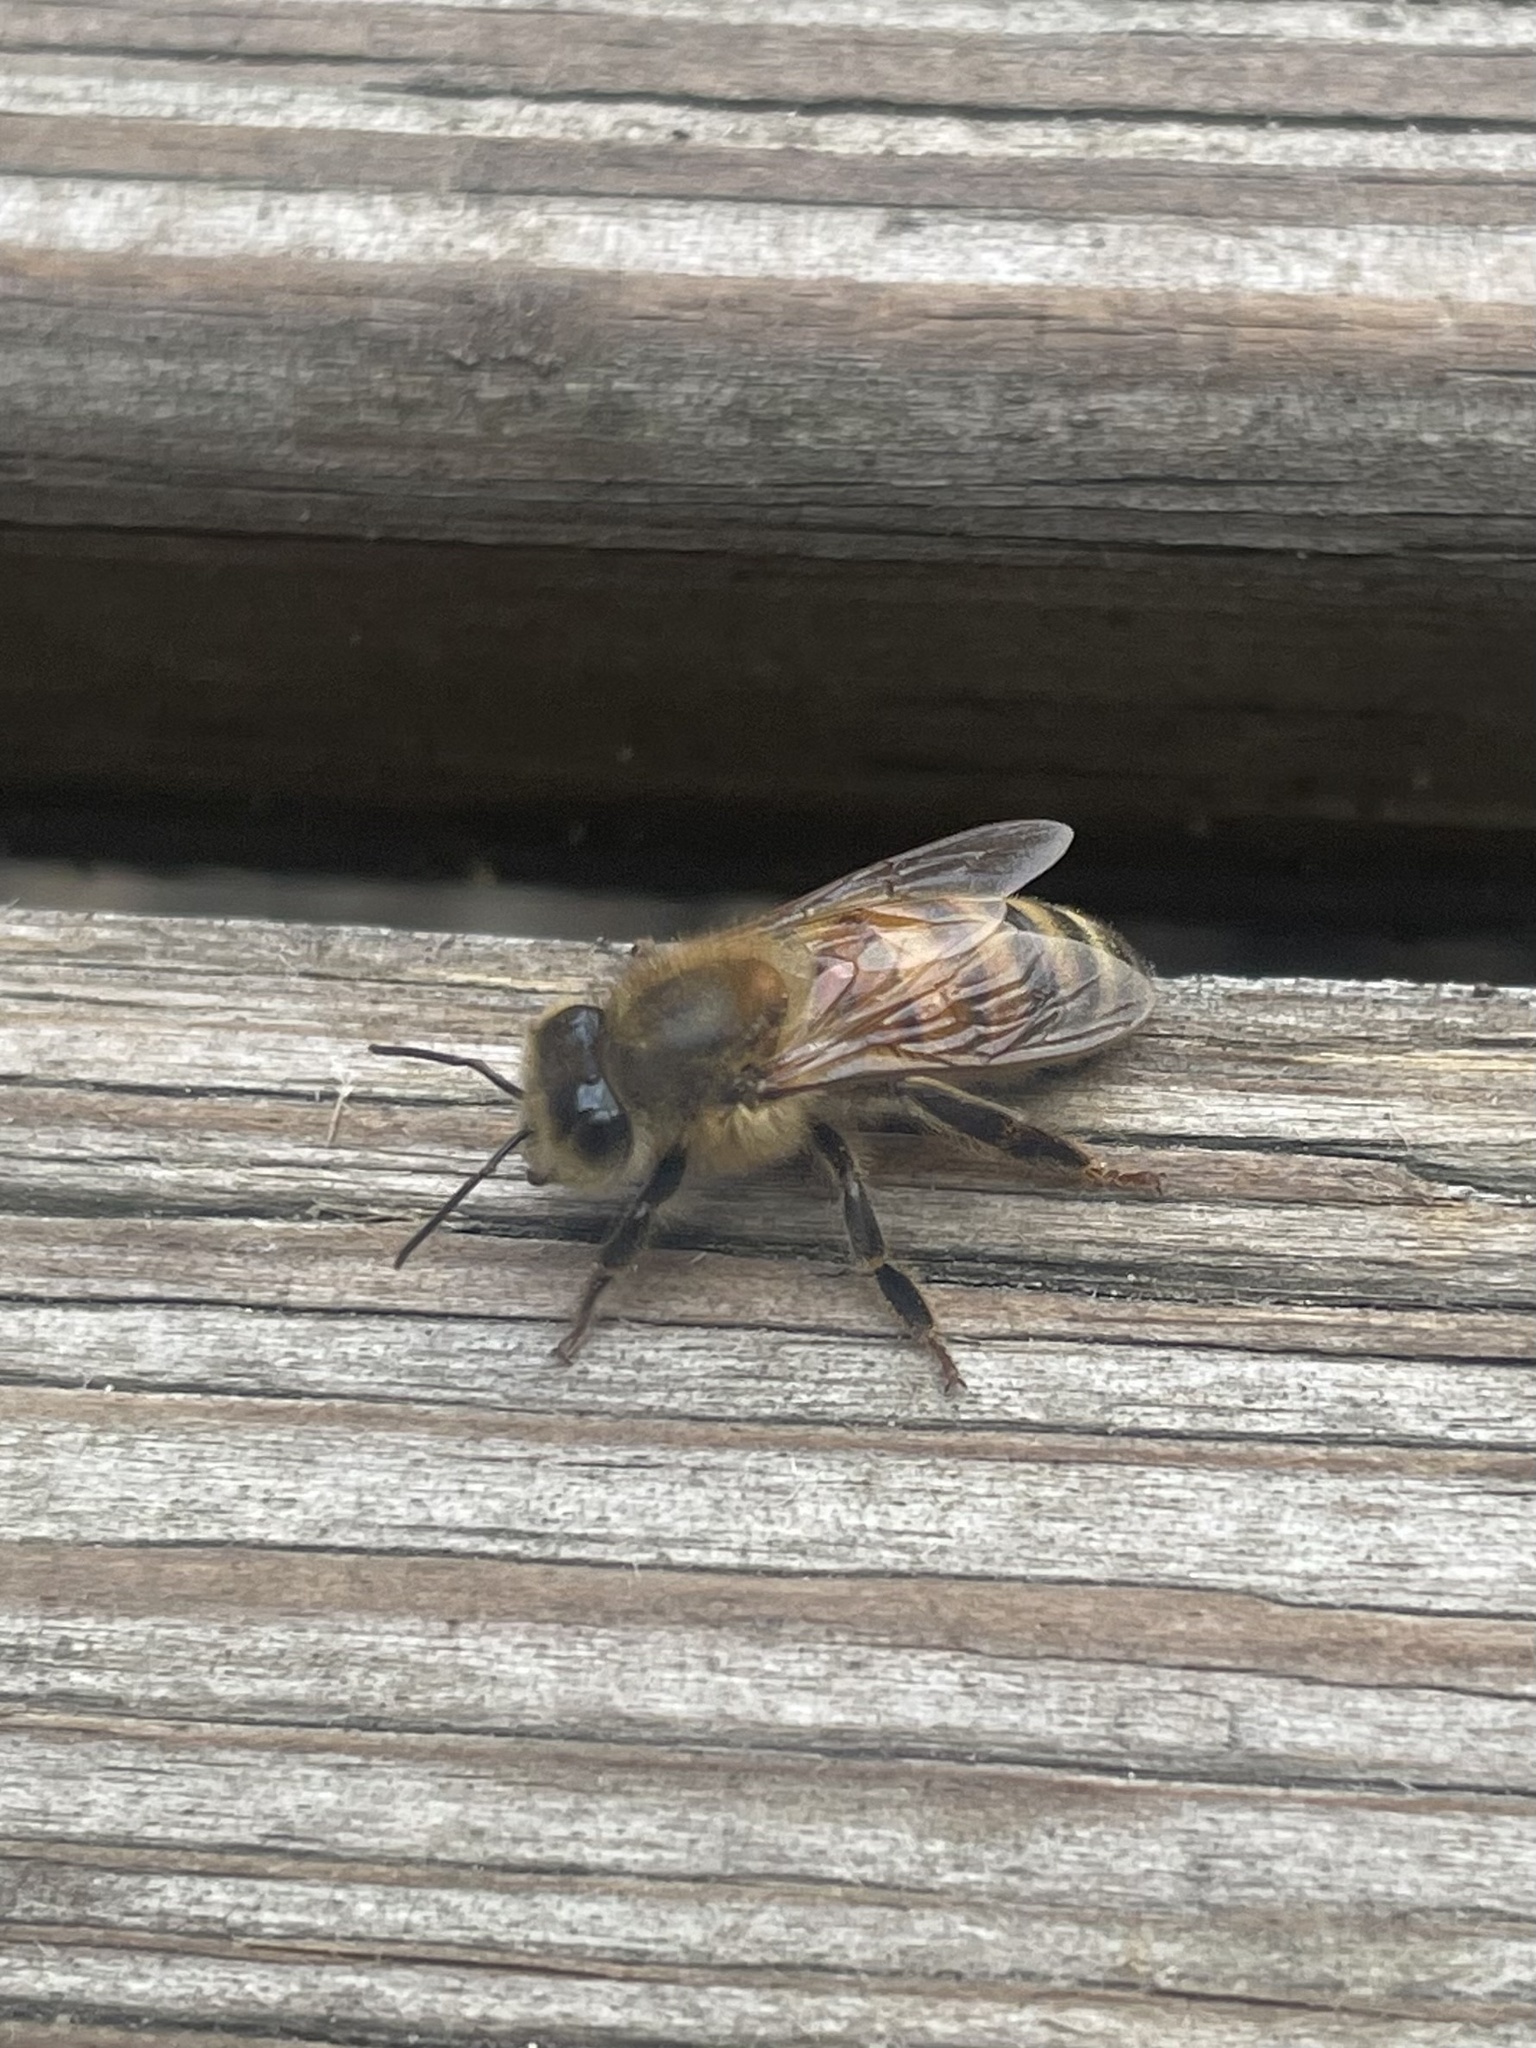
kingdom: Animalia
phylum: Arthropoda
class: Insecta
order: Hymenoptera
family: Apidae
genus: Apis
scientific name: Apis mellifera
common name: Honey bee
